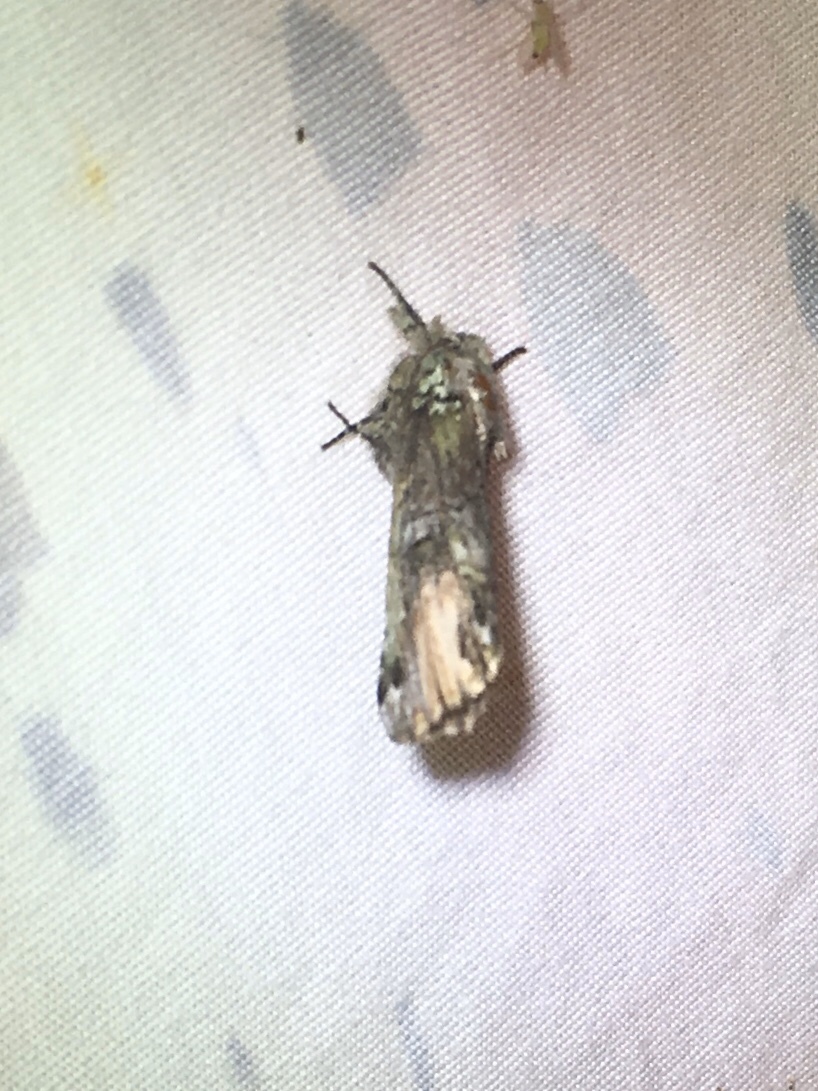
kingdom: Animalia
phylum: Arthropoda
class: Insecta
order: Lepidoptera
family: Notodontidae
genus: Schizura
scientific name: Schizura
